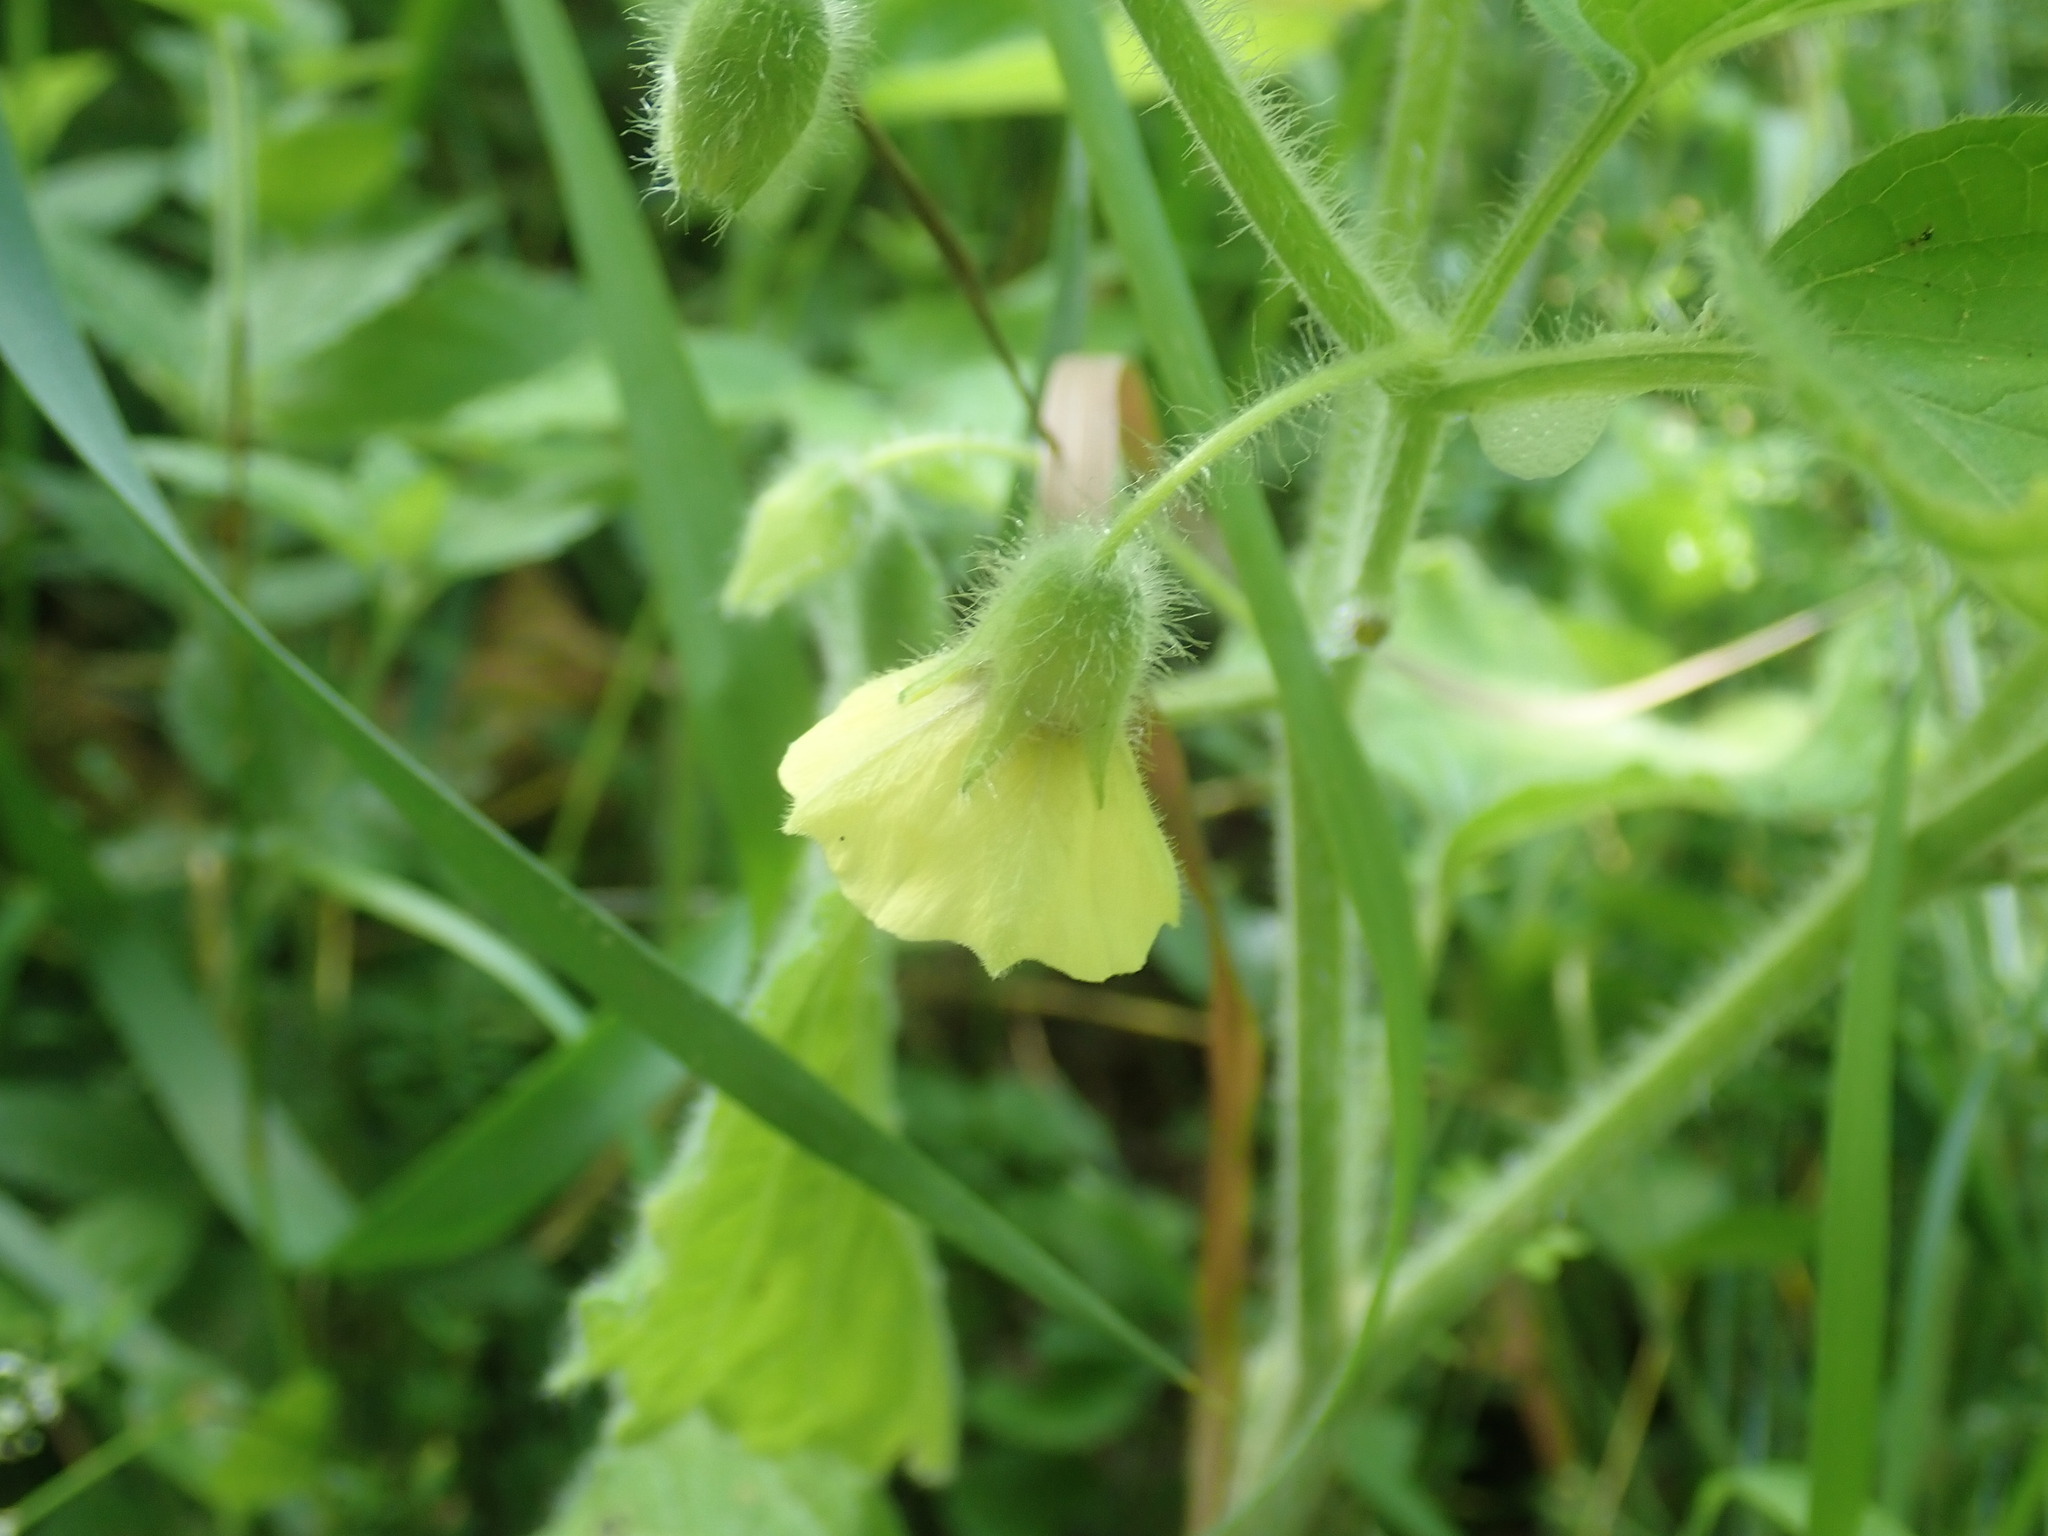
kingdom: Plantae
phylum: Tracheophyta
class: Magnoliopsida
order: Solanales
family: Solanaceae
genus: Physalis
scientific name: Physalis heterophylla
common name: Clammy ground-cherry
